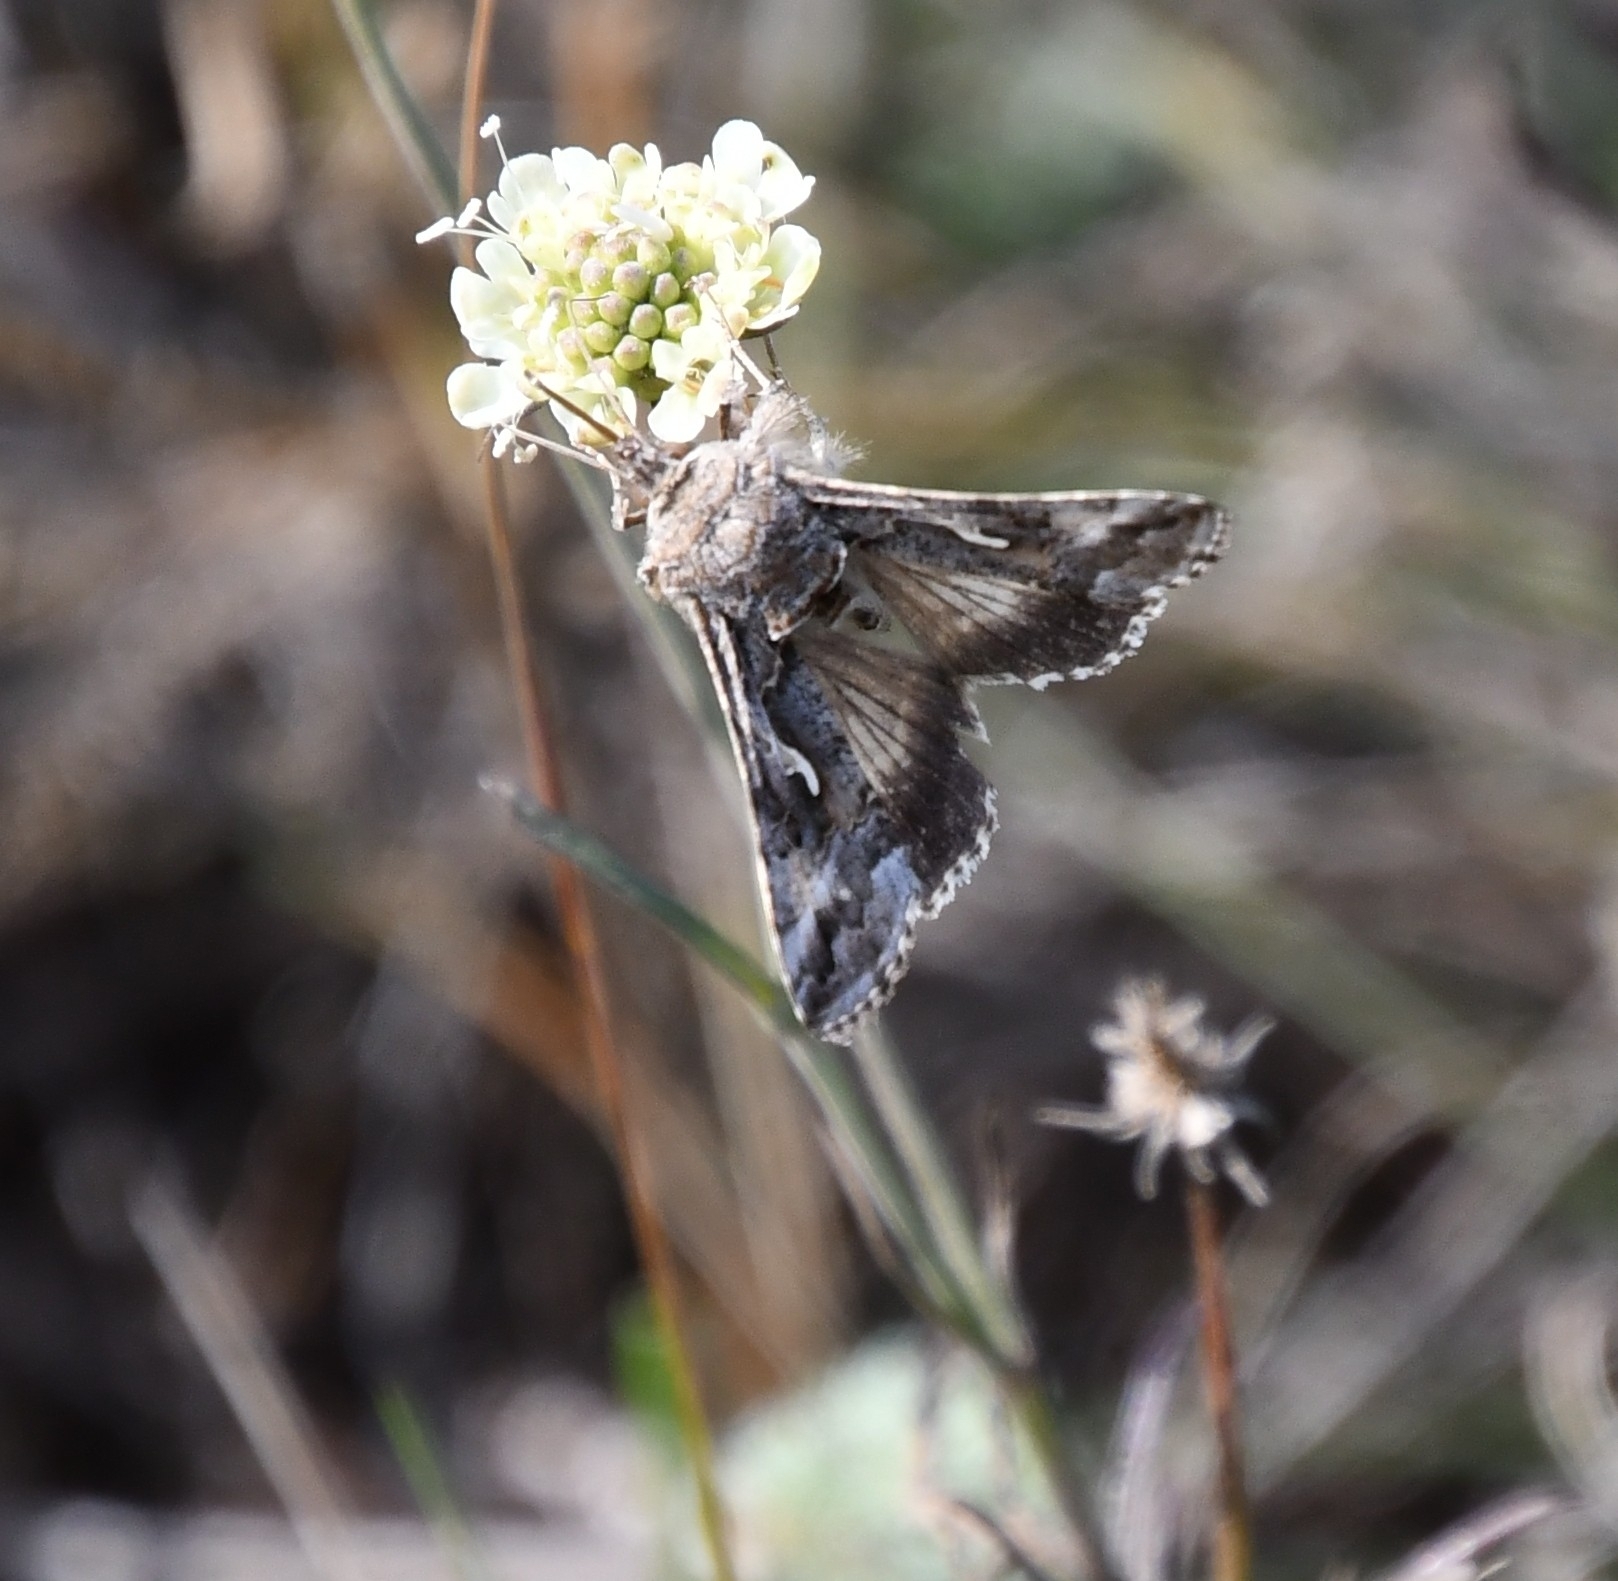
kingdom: Animalia
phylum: Arthropoda
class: Insecta
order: Lepidoptera
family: Noctuidae
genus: Autographa
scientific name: Autographa gamma
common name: Silver y
